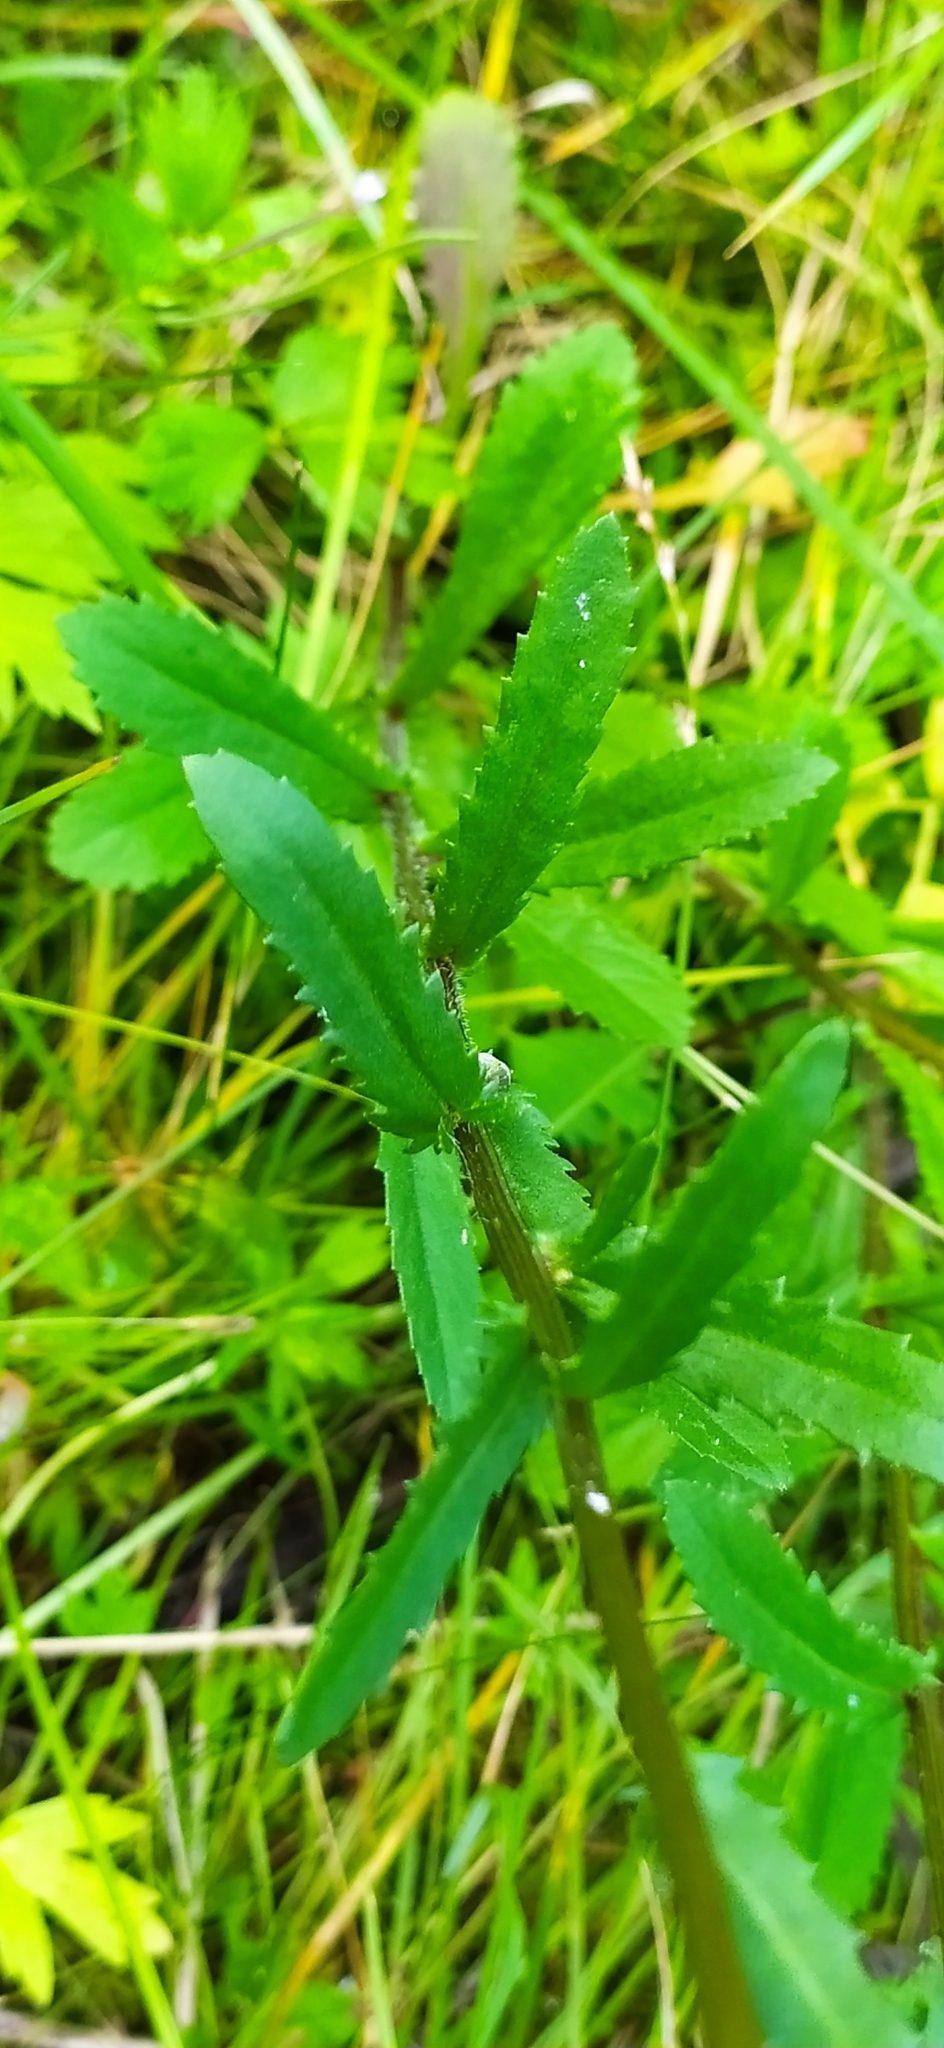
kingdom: Plantae
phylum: Tracheophyta
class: Magnoliopsida
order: Asterales
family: Asteraceae
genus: Leucanthemum
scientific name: Leucanthemum ircutianum
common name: Daisy
